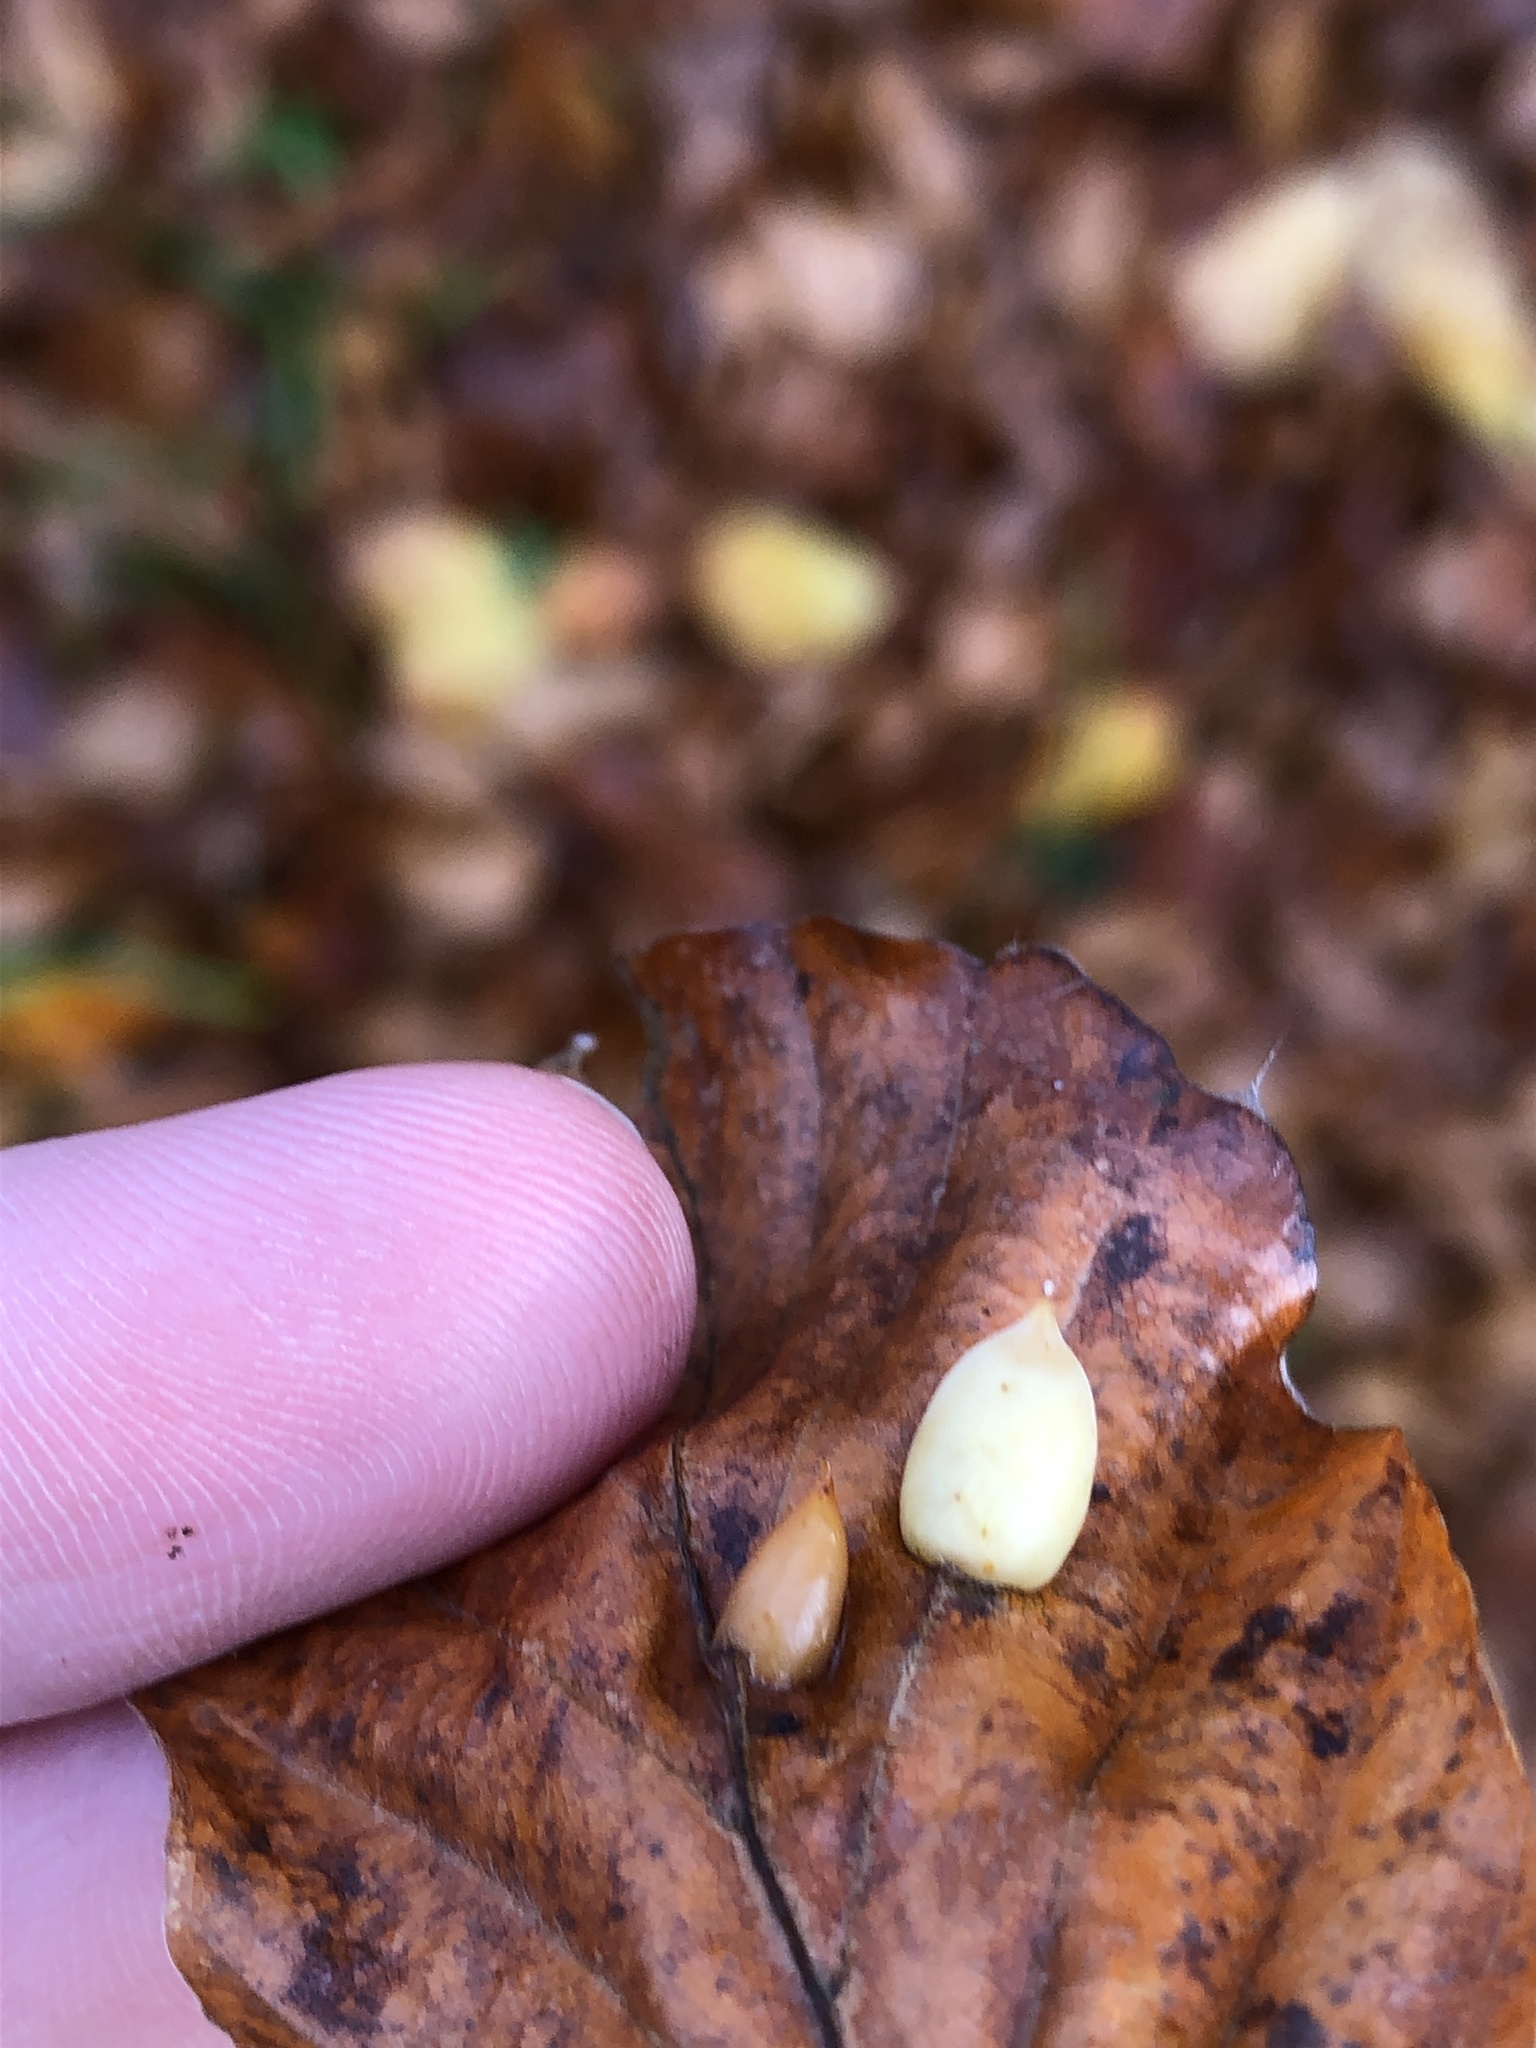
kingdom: Animalia
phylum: Arthropoda
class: Insecta
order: Diptera
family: Cecidomyiidae
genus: Mikiola
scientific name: Mikiola fagi
